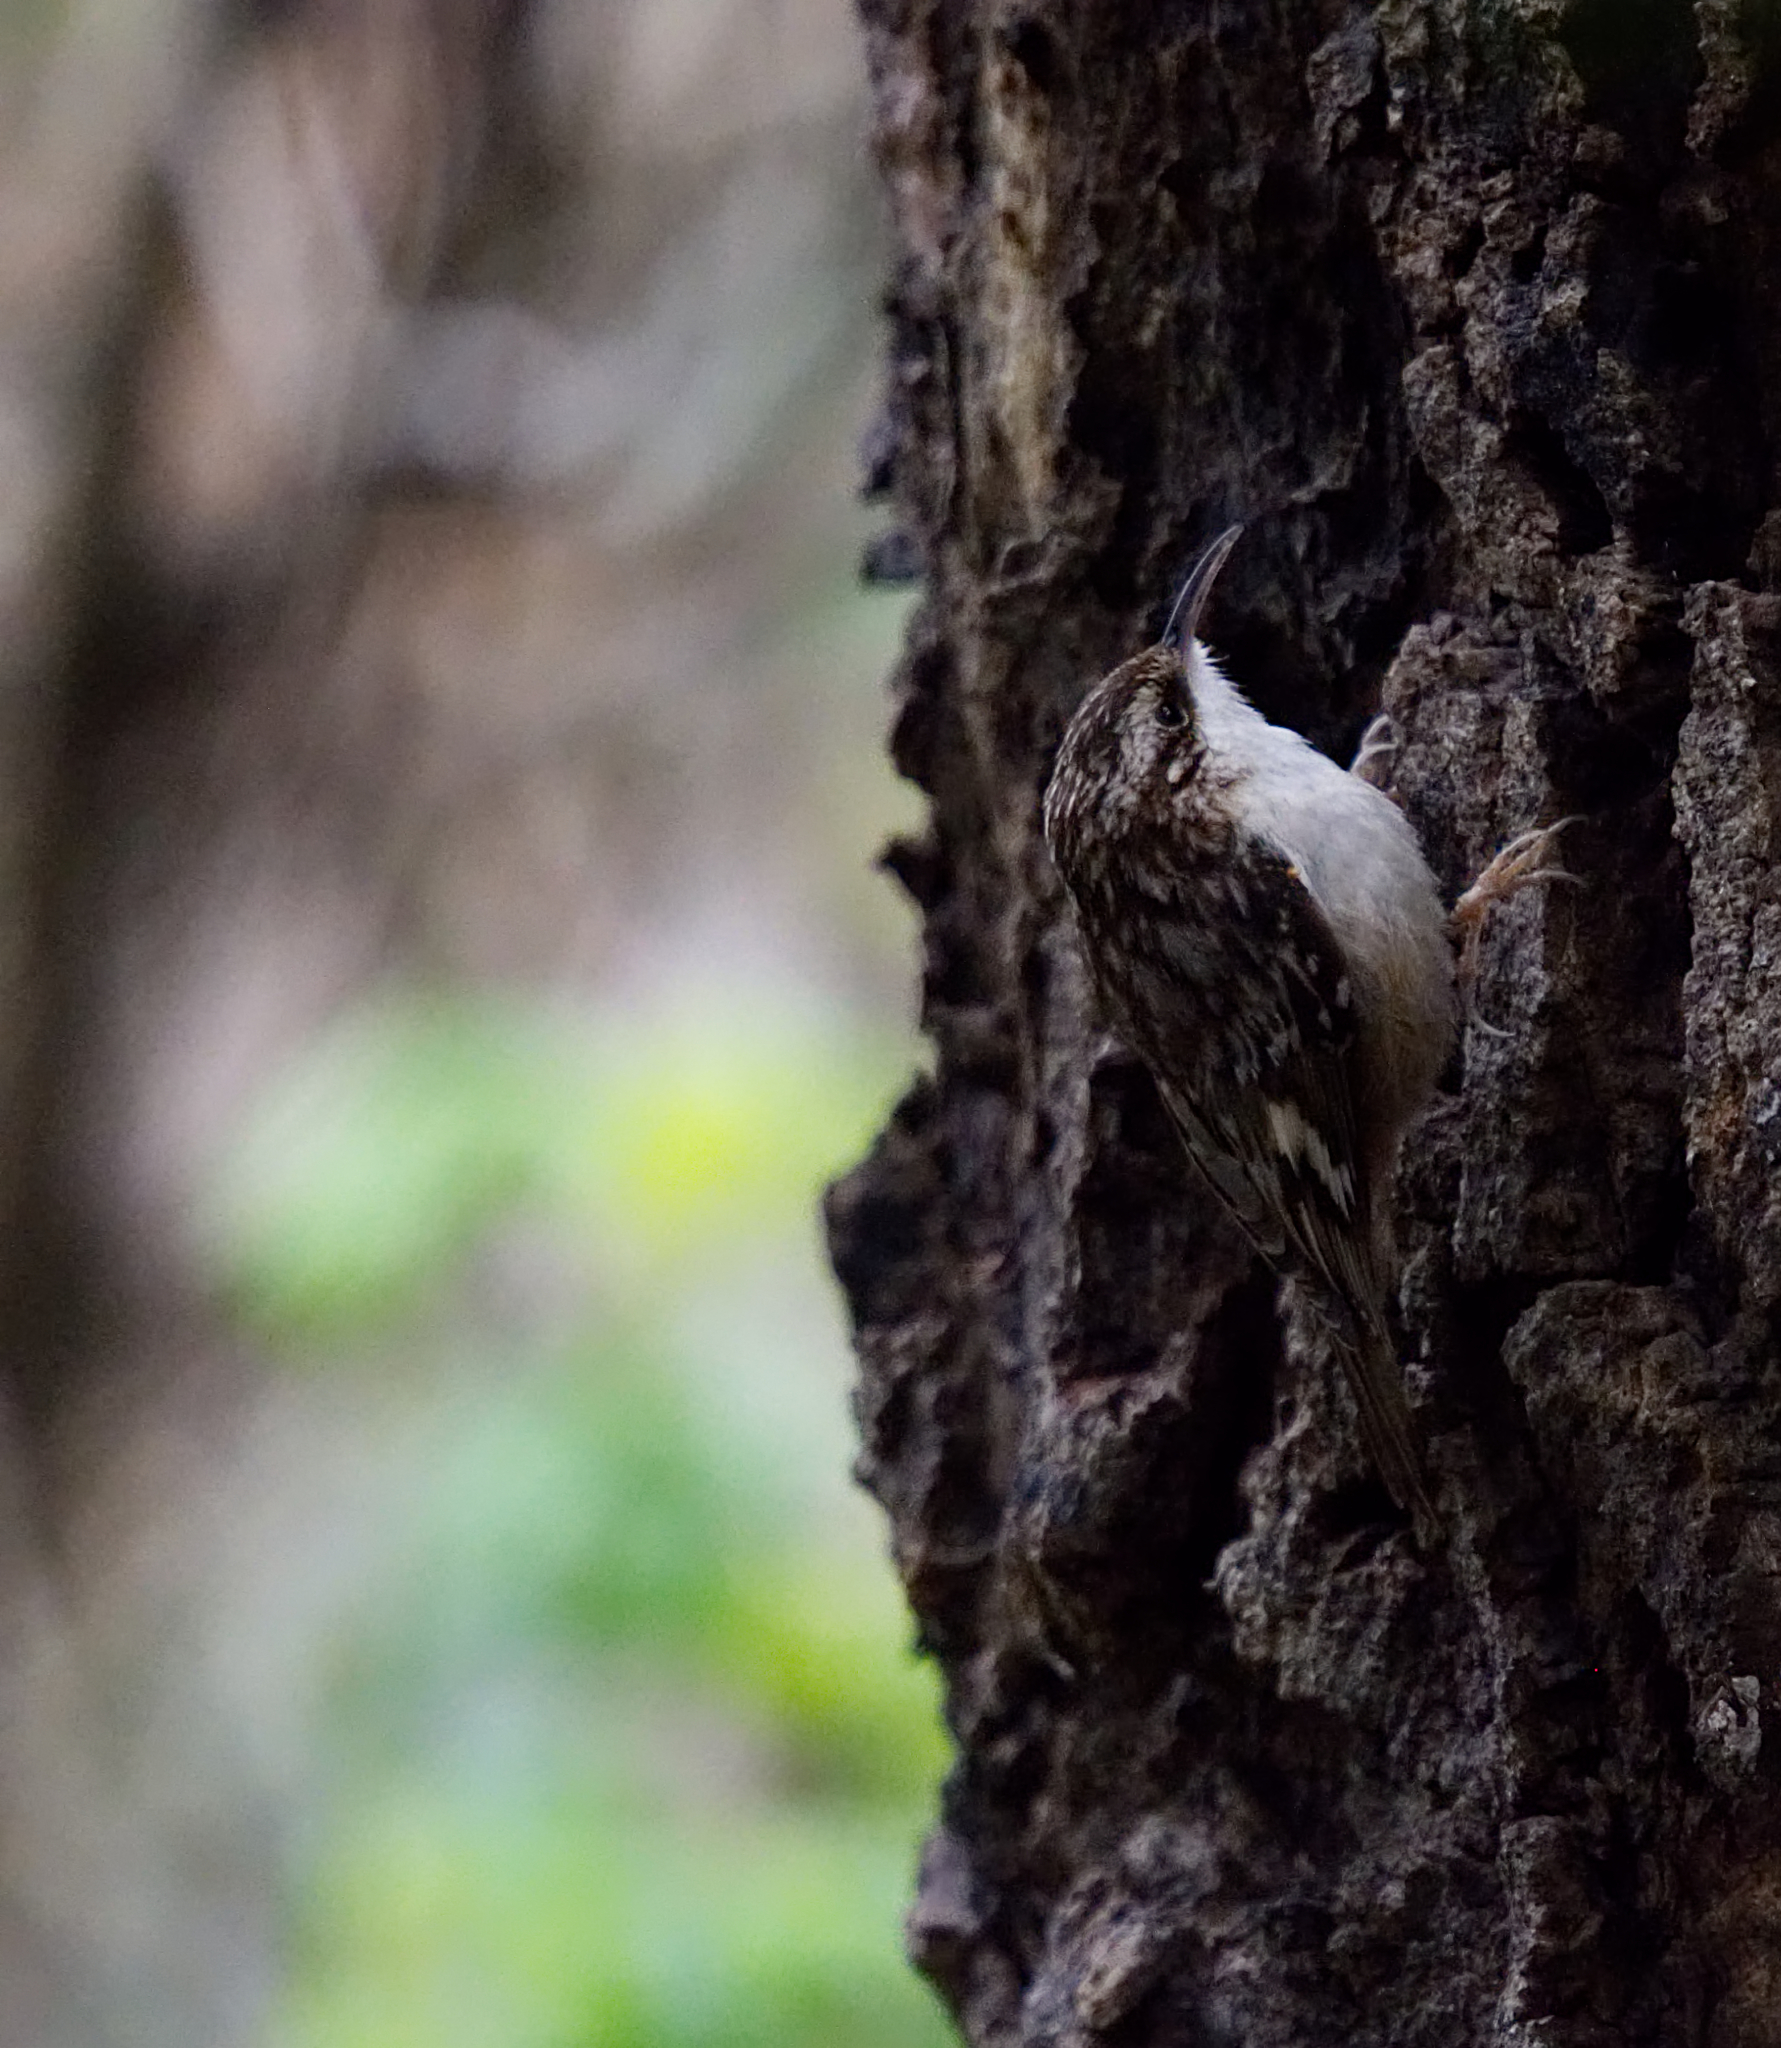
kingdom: Animalia
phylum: Chordata
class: Aves
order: Passeriformes
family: Certhiidae
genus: Certhia
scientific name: Certhia americana
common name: Brown creeper
